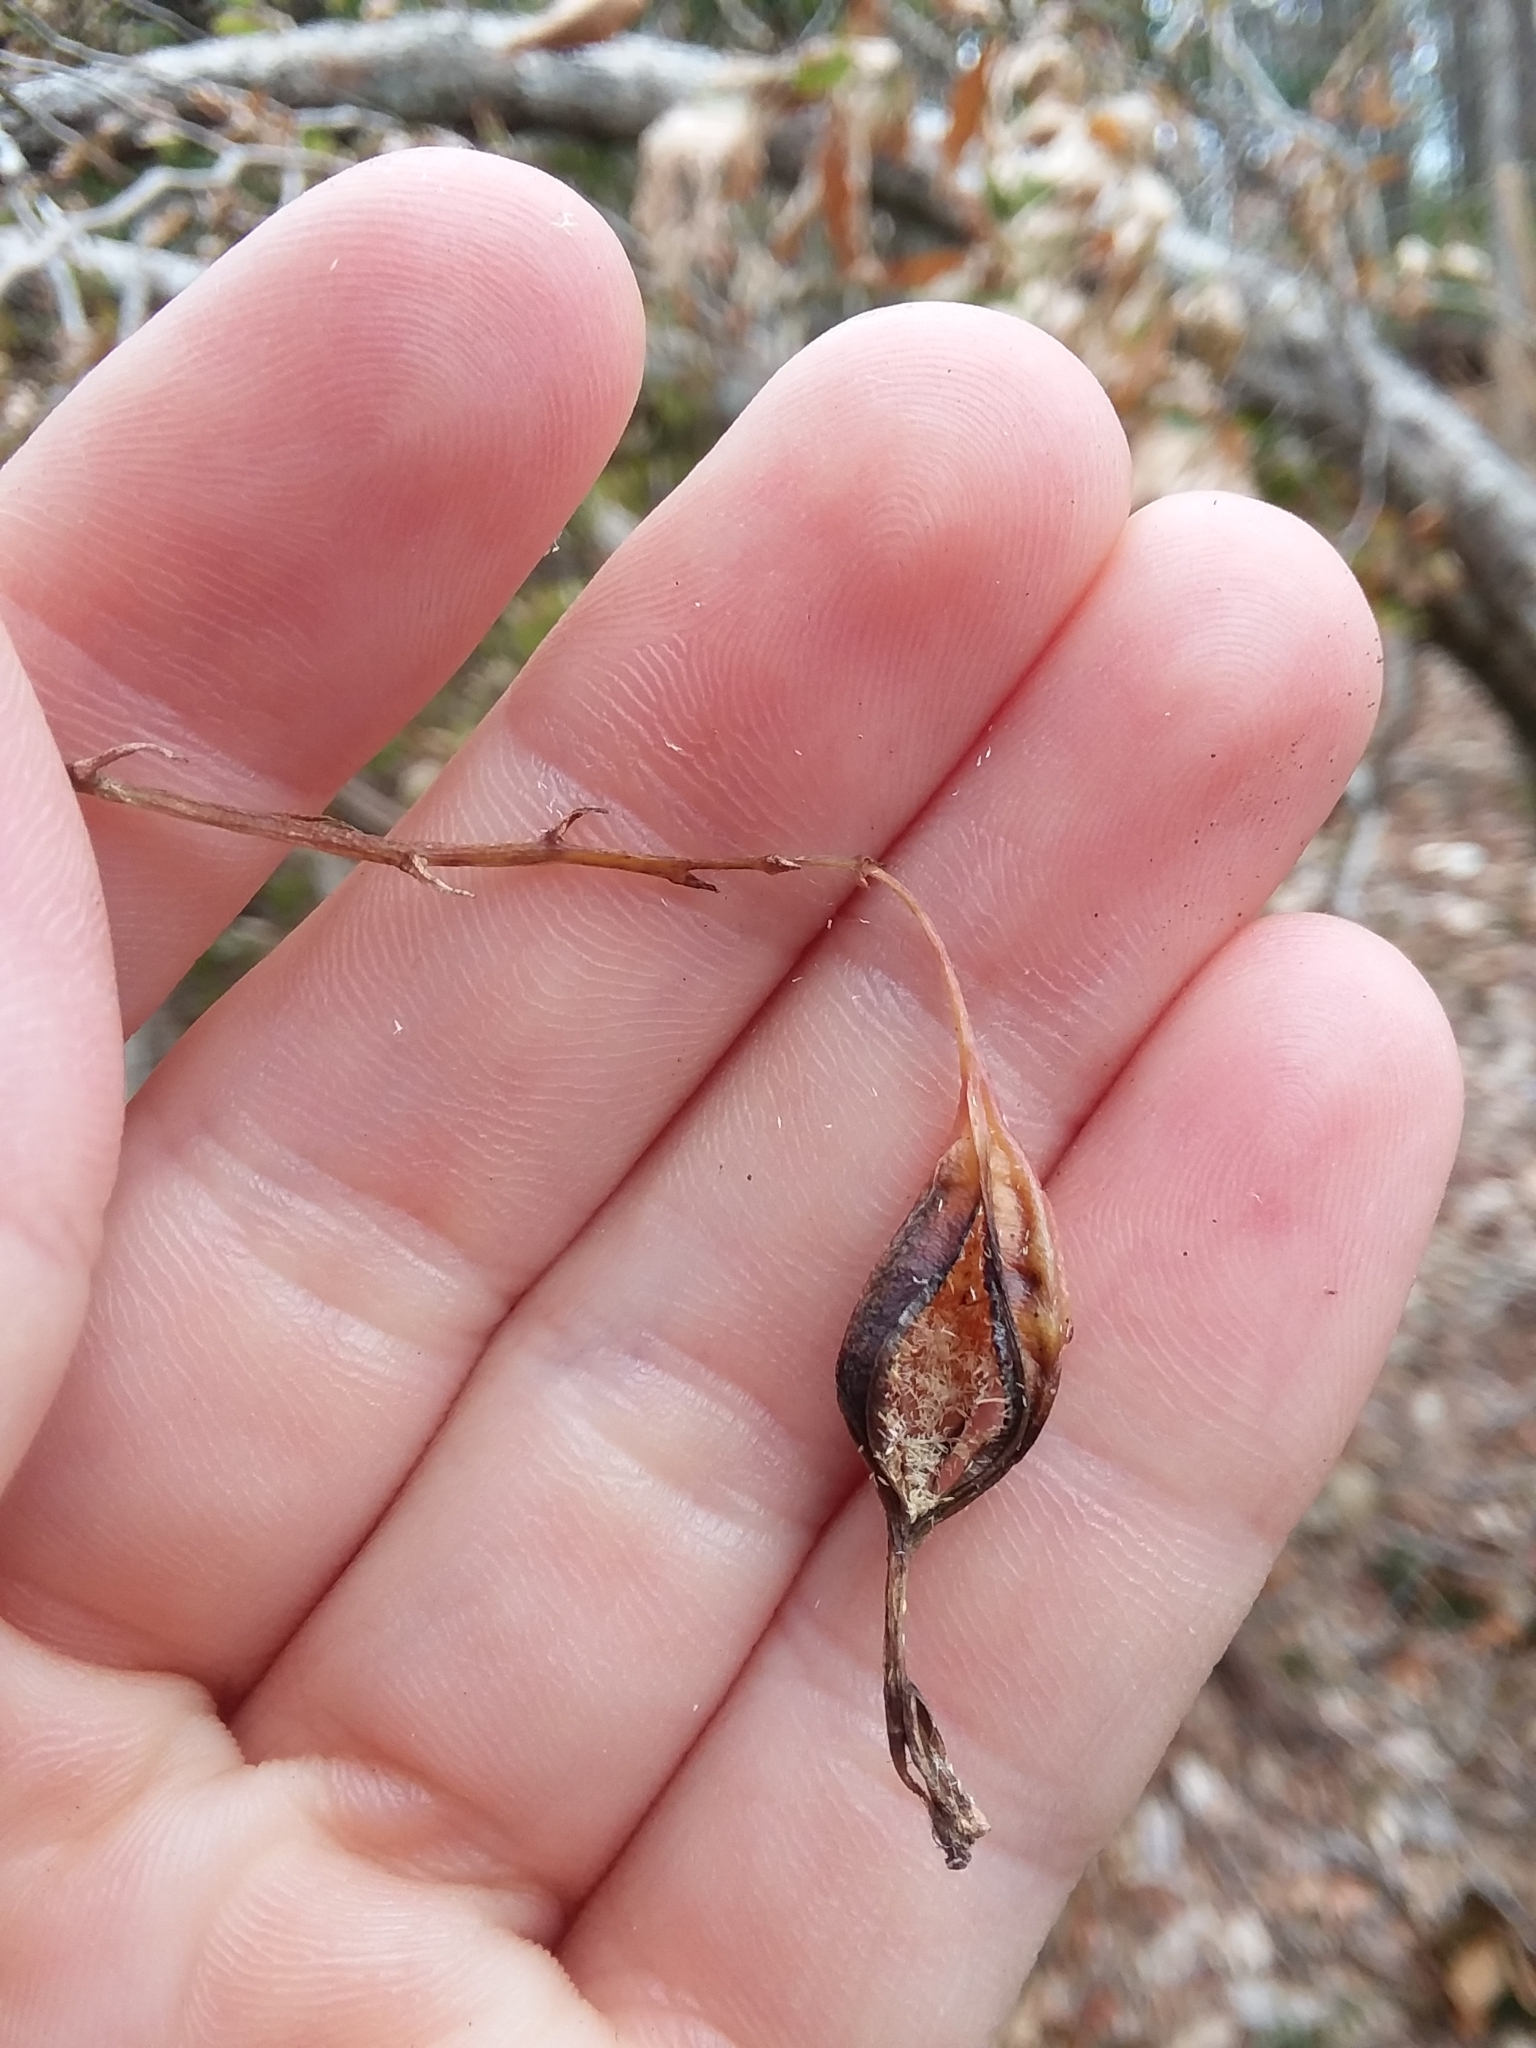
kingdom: Plantae
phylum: Tracheophyta
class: Liliopsida
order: Asparagales
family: Orchidaceae
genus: Epidendrum
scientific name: Epidendrum conopseum
